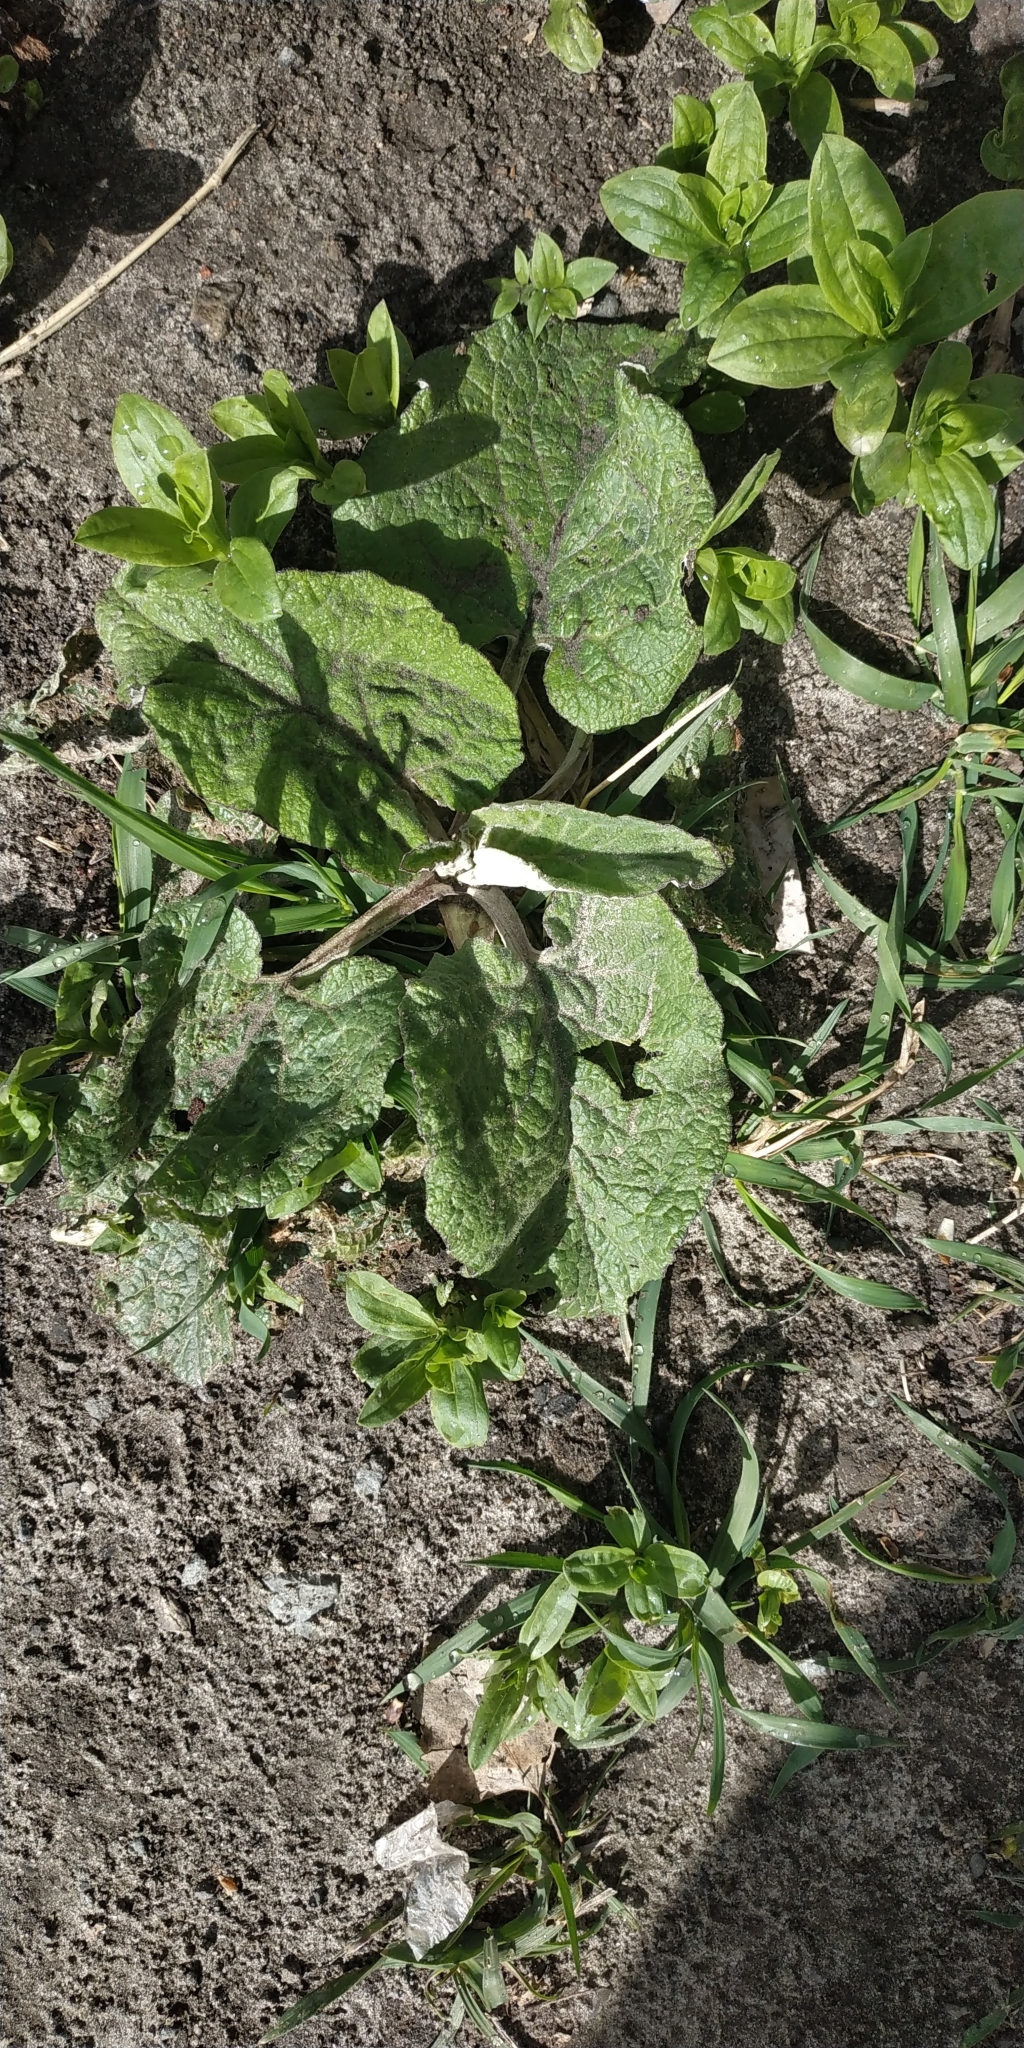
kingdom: Plantae
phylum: Tracheophyta
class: Magnoliopsida
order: Asterales
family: Asteraceae
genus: Arctium
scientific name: Arctium tomentosum
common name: Woolly burdock
